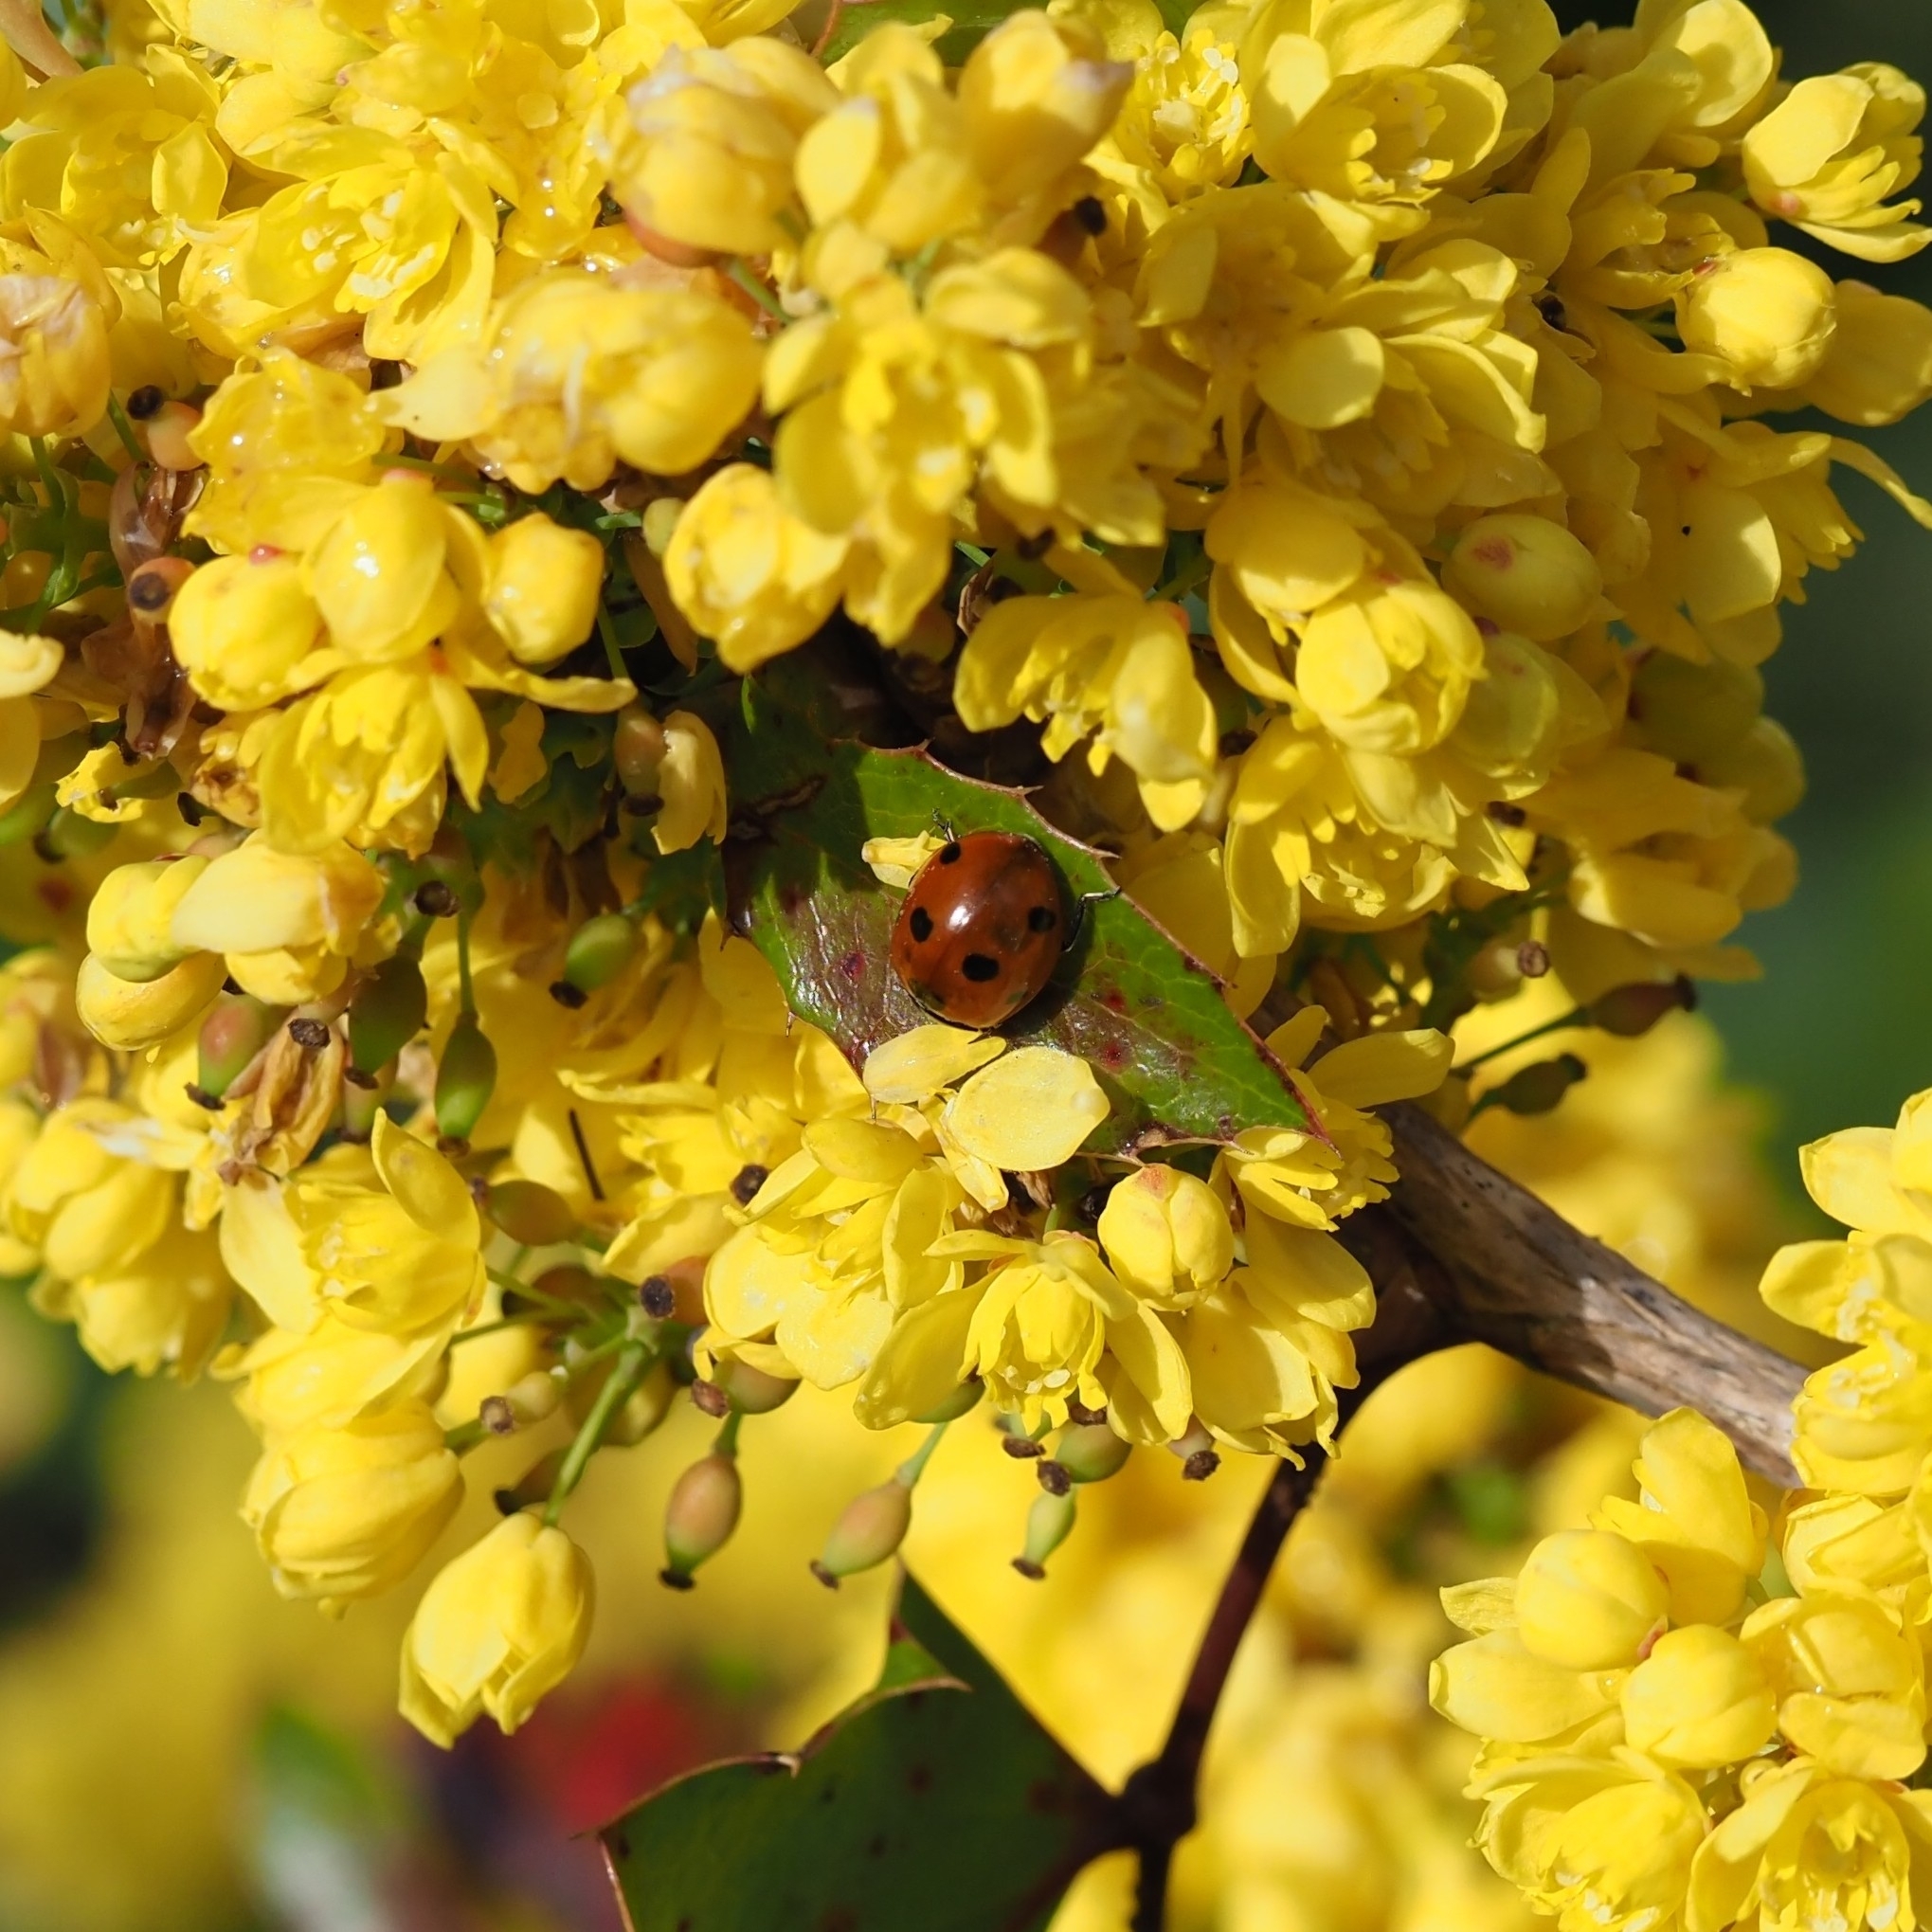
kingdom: Animalia
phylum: Arthropoda
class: Insecta
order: Coleoptera
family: Coccinellidae
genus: Coccinella
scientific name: Coccinella septempunctata
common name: Sevenspotted lady beetle
